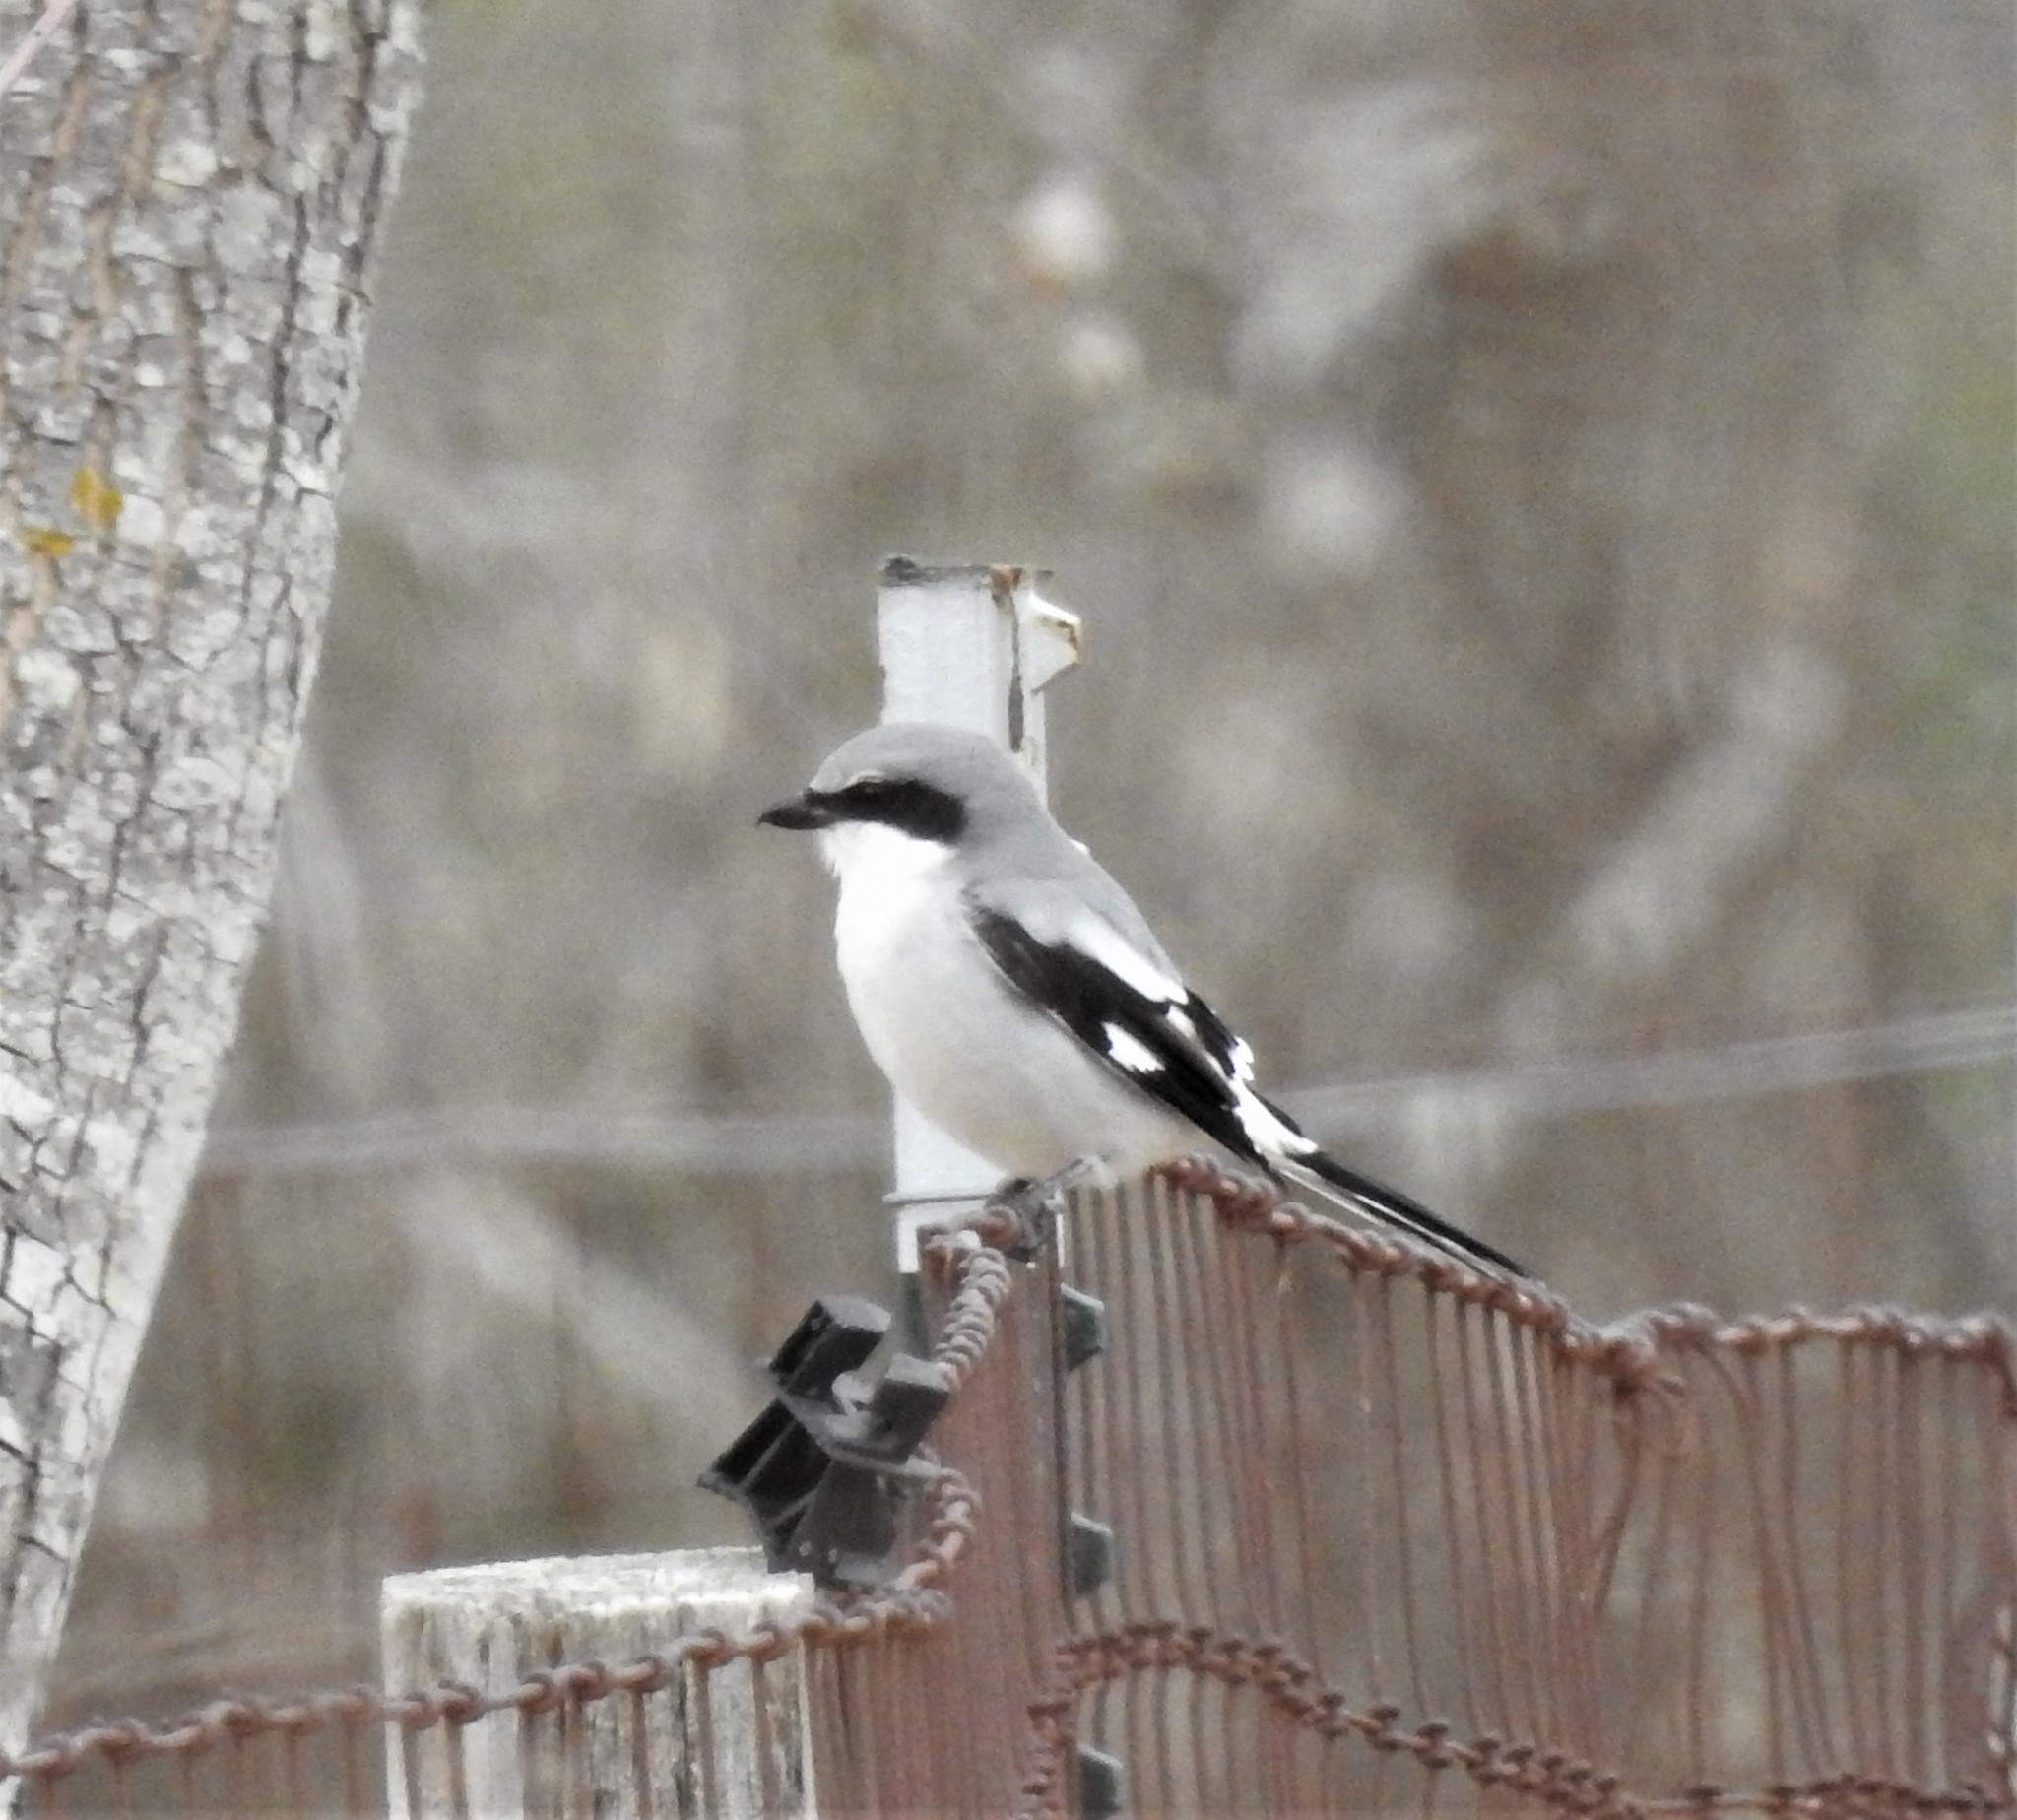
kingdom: Animalia
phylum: Chordata
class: Aves
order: Passeriformes
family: Laniidae
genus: Lanius
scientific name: Lanius ludovicianus
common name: Loggerhead shrike
